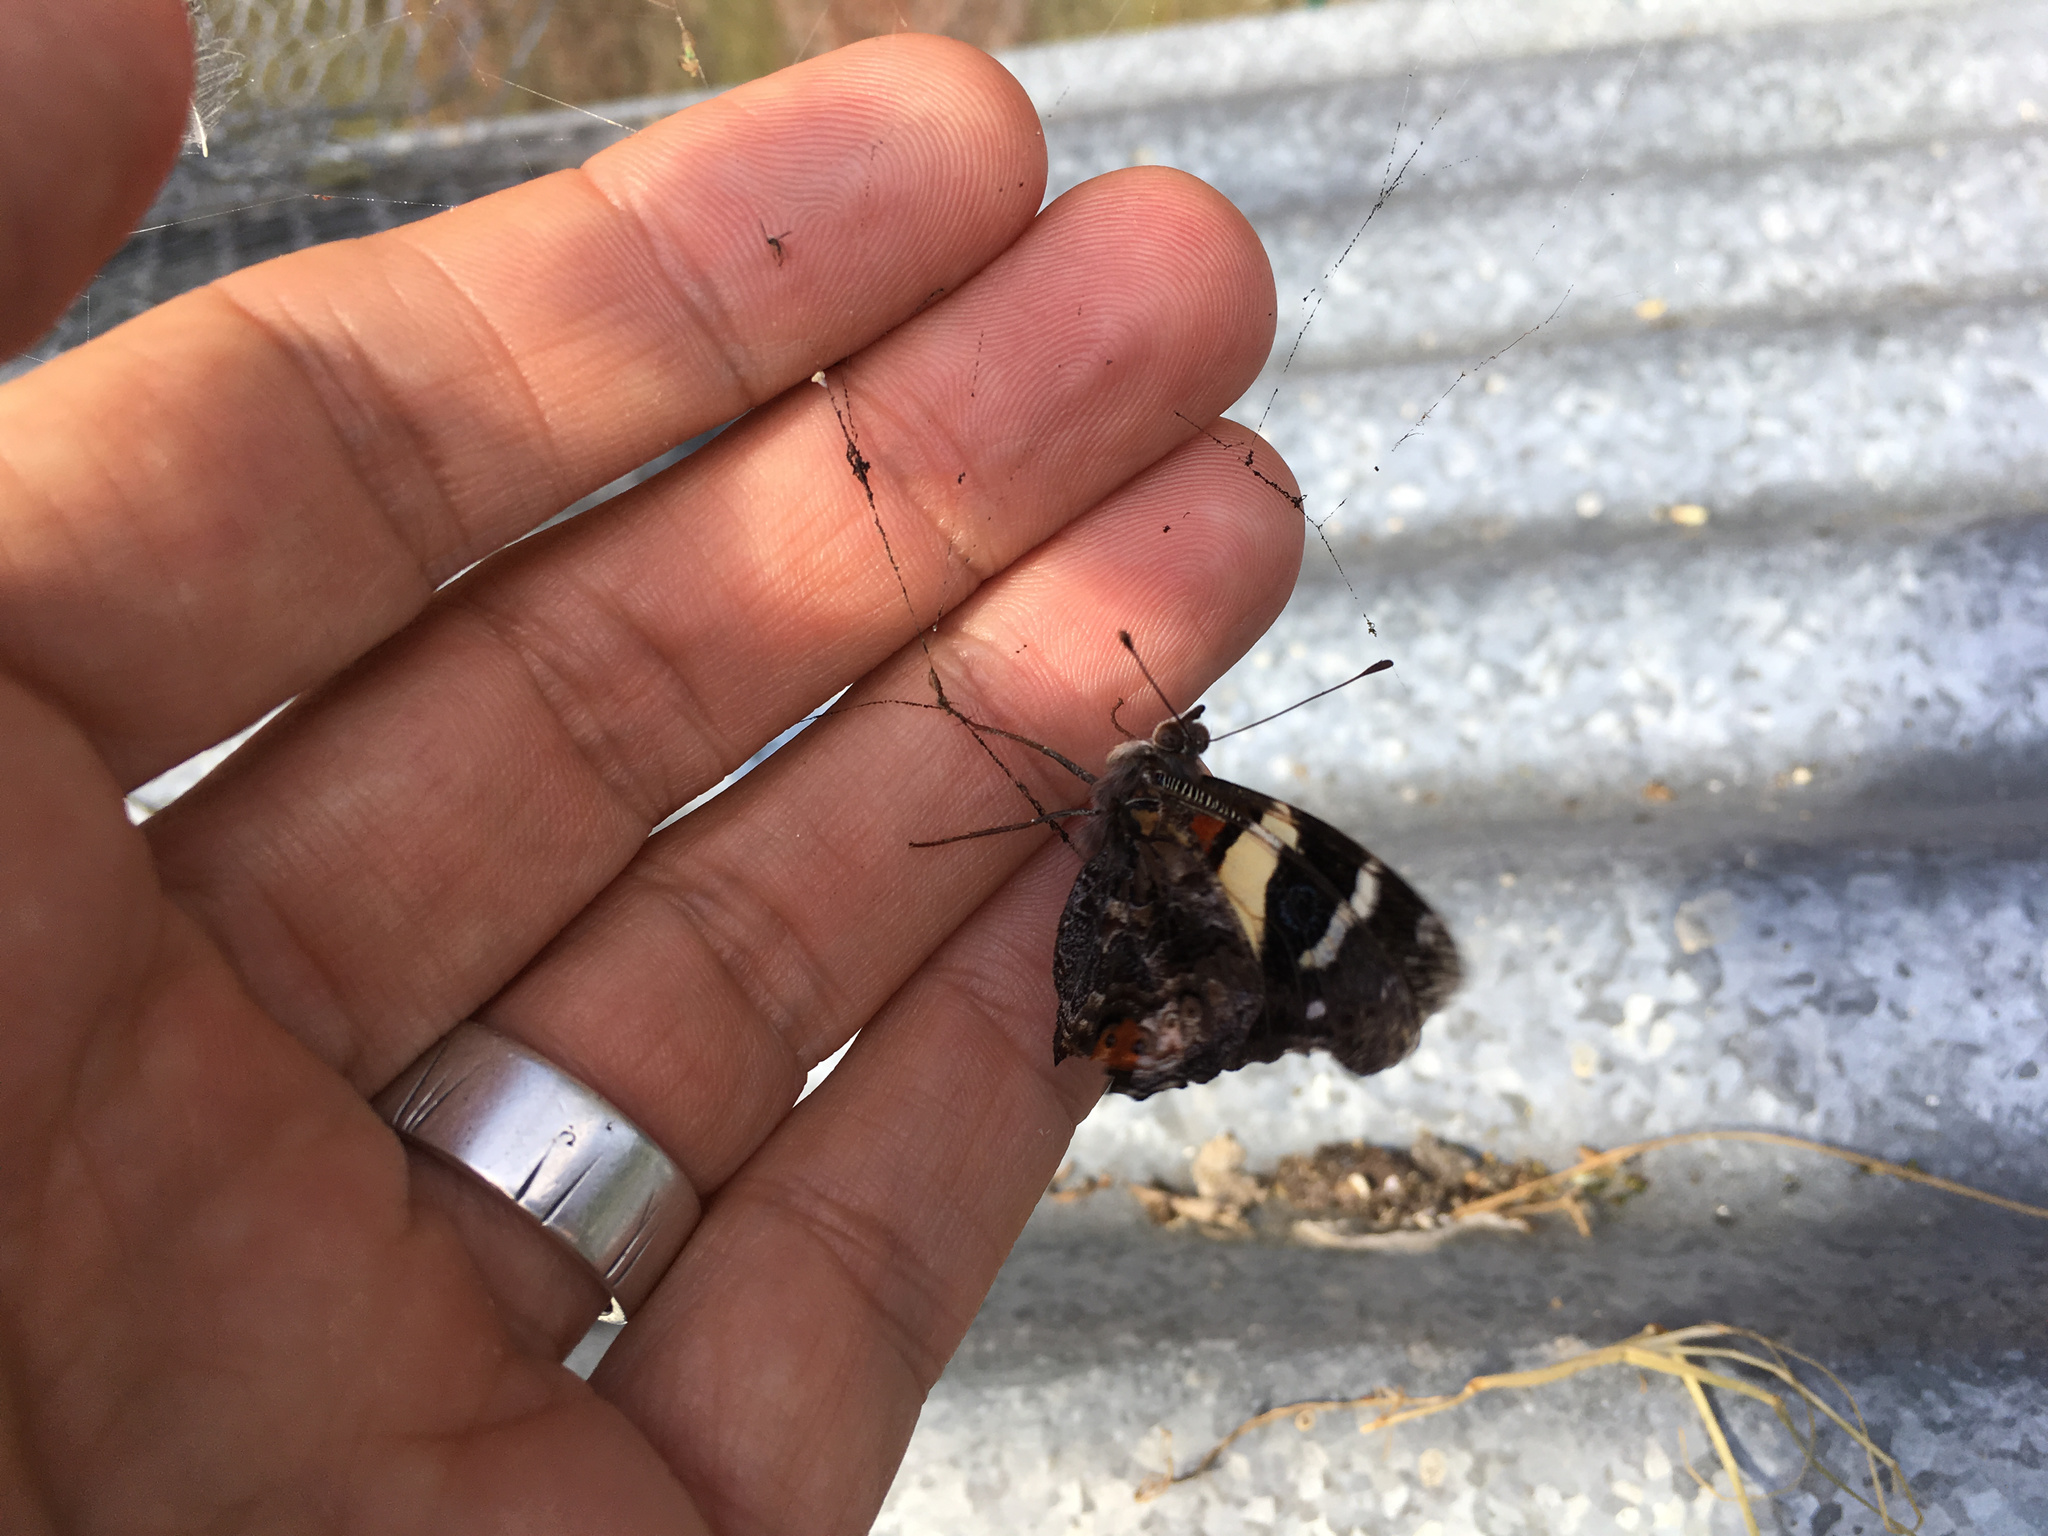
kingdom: Animalia
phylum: Arthropoda
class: Insecta
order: Lepidoptera
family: Nymphalidae
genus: Vanessa
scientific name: Vanessa itea
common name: Yellow admiral
